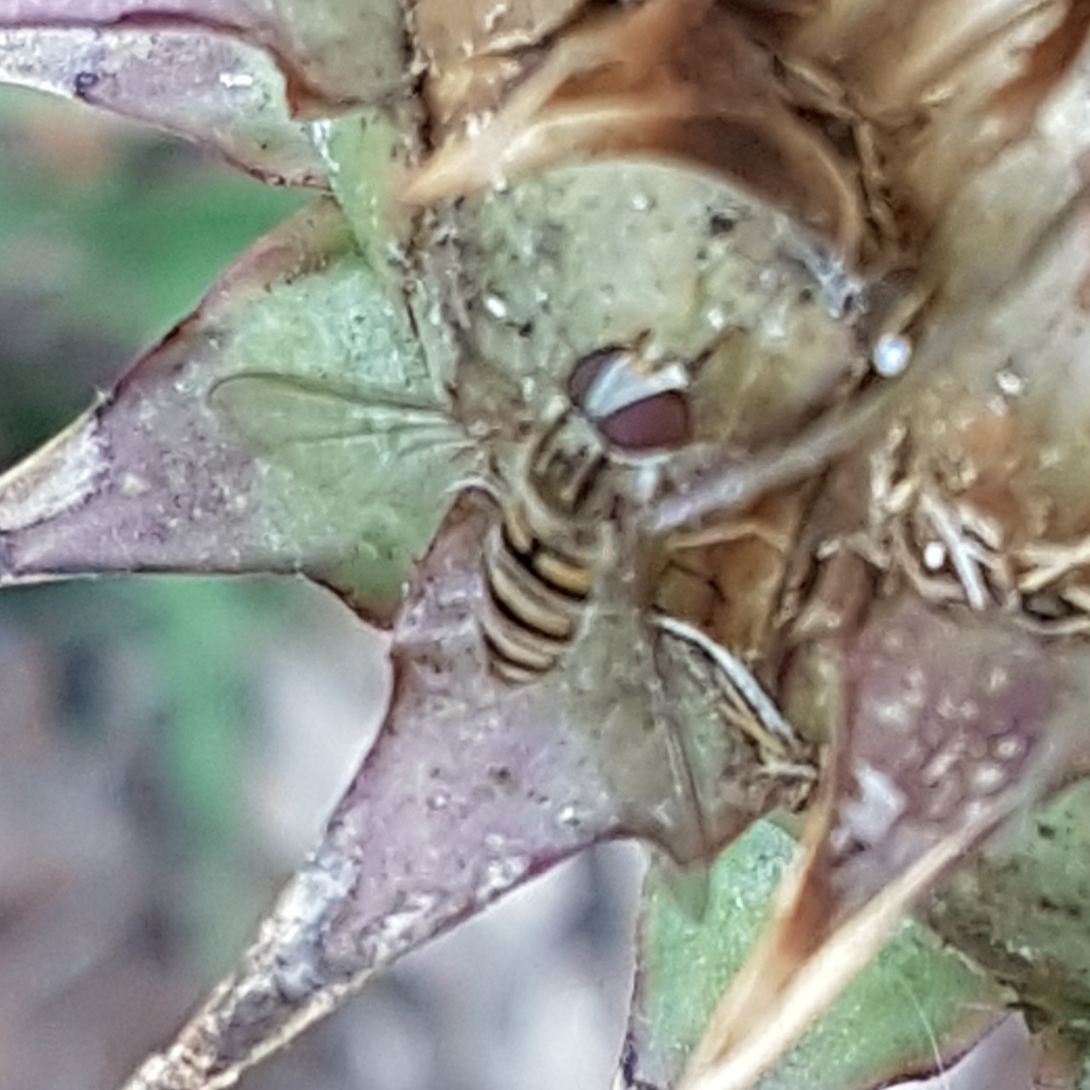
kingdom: Animalia
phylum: Arthropoda
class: Insecta
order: Diptera
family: Syrphidae
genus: Episyrphus
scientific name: Episyrphus balteatus
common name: Marmalade hoverfly
